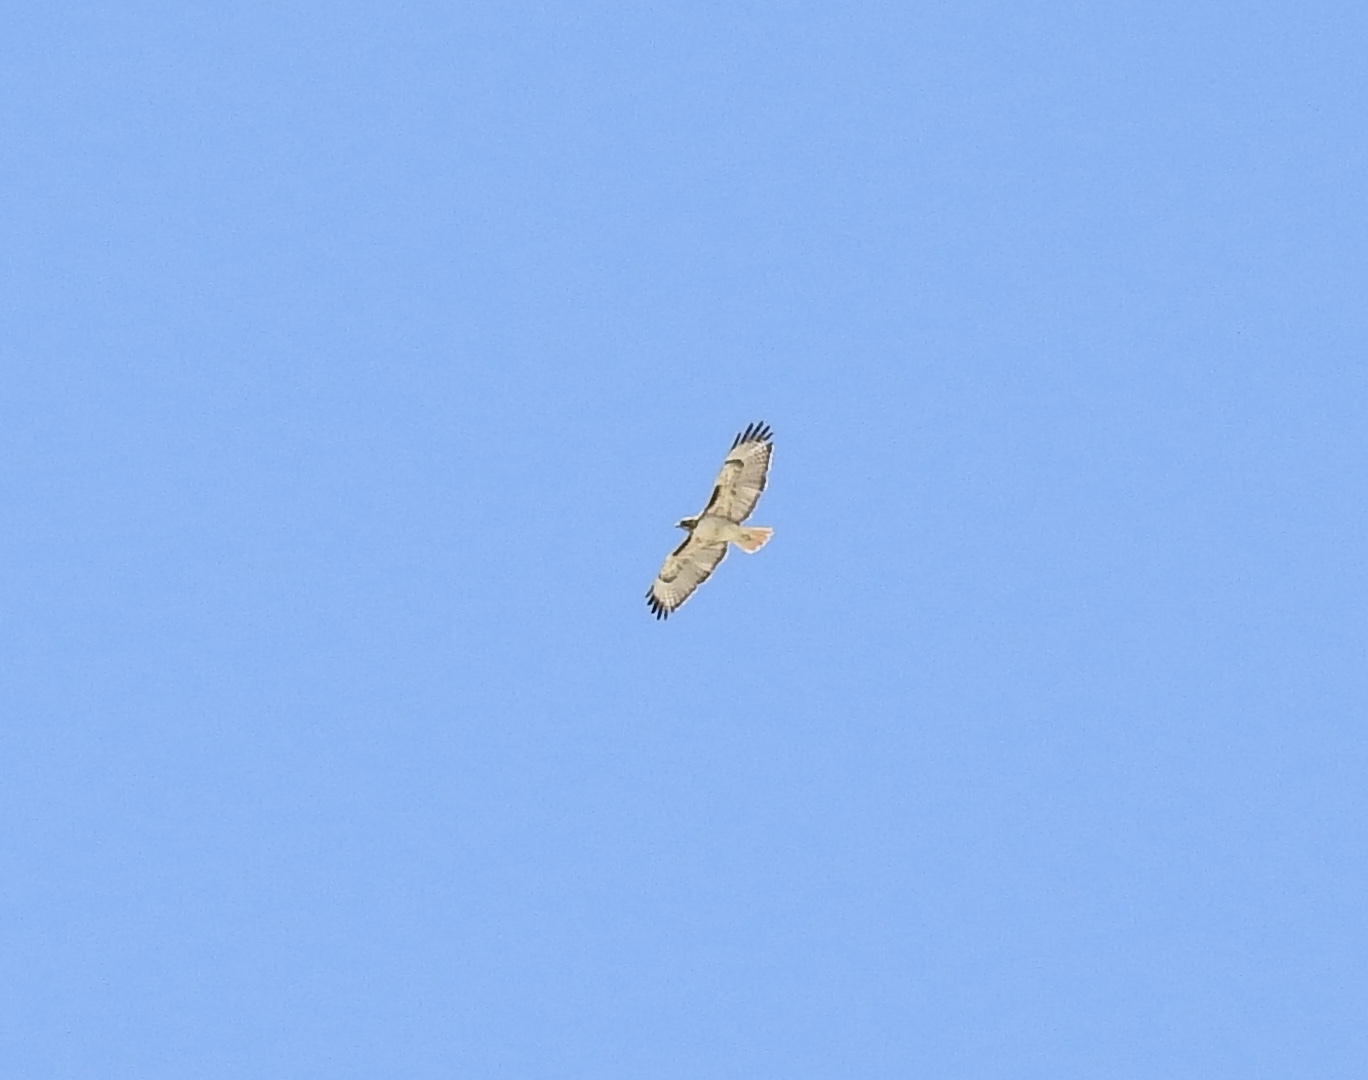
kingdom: Animalia
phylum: Chordata
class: Aves
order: Accipitriformes
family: Accipitridae
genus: Buteo
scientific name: Buteo jamaicensis
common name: Red-tailed hawk
